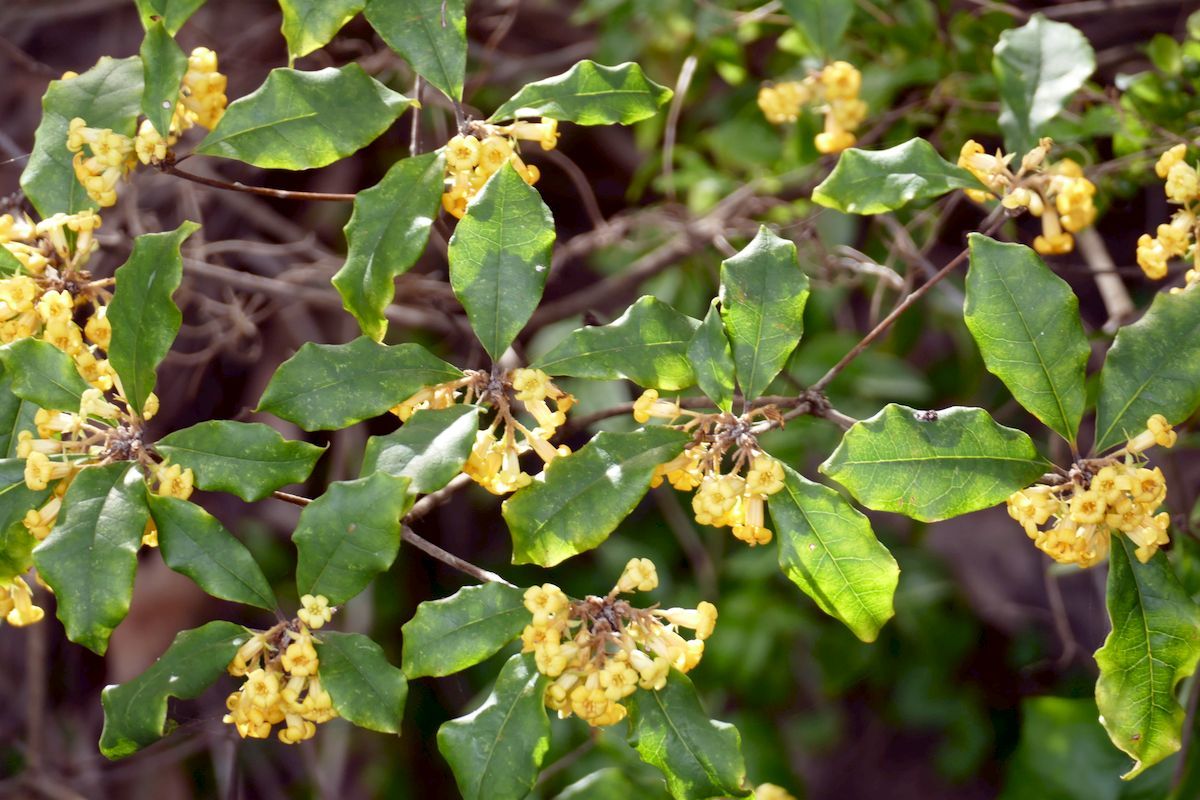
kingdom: Plantae
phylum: Tracheophyta
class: Magnoliopsida
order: Apiales
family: Pittosporaceae
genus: Pittosporum
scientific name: Pittosporum revolutum
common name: Brisbane-laurel
